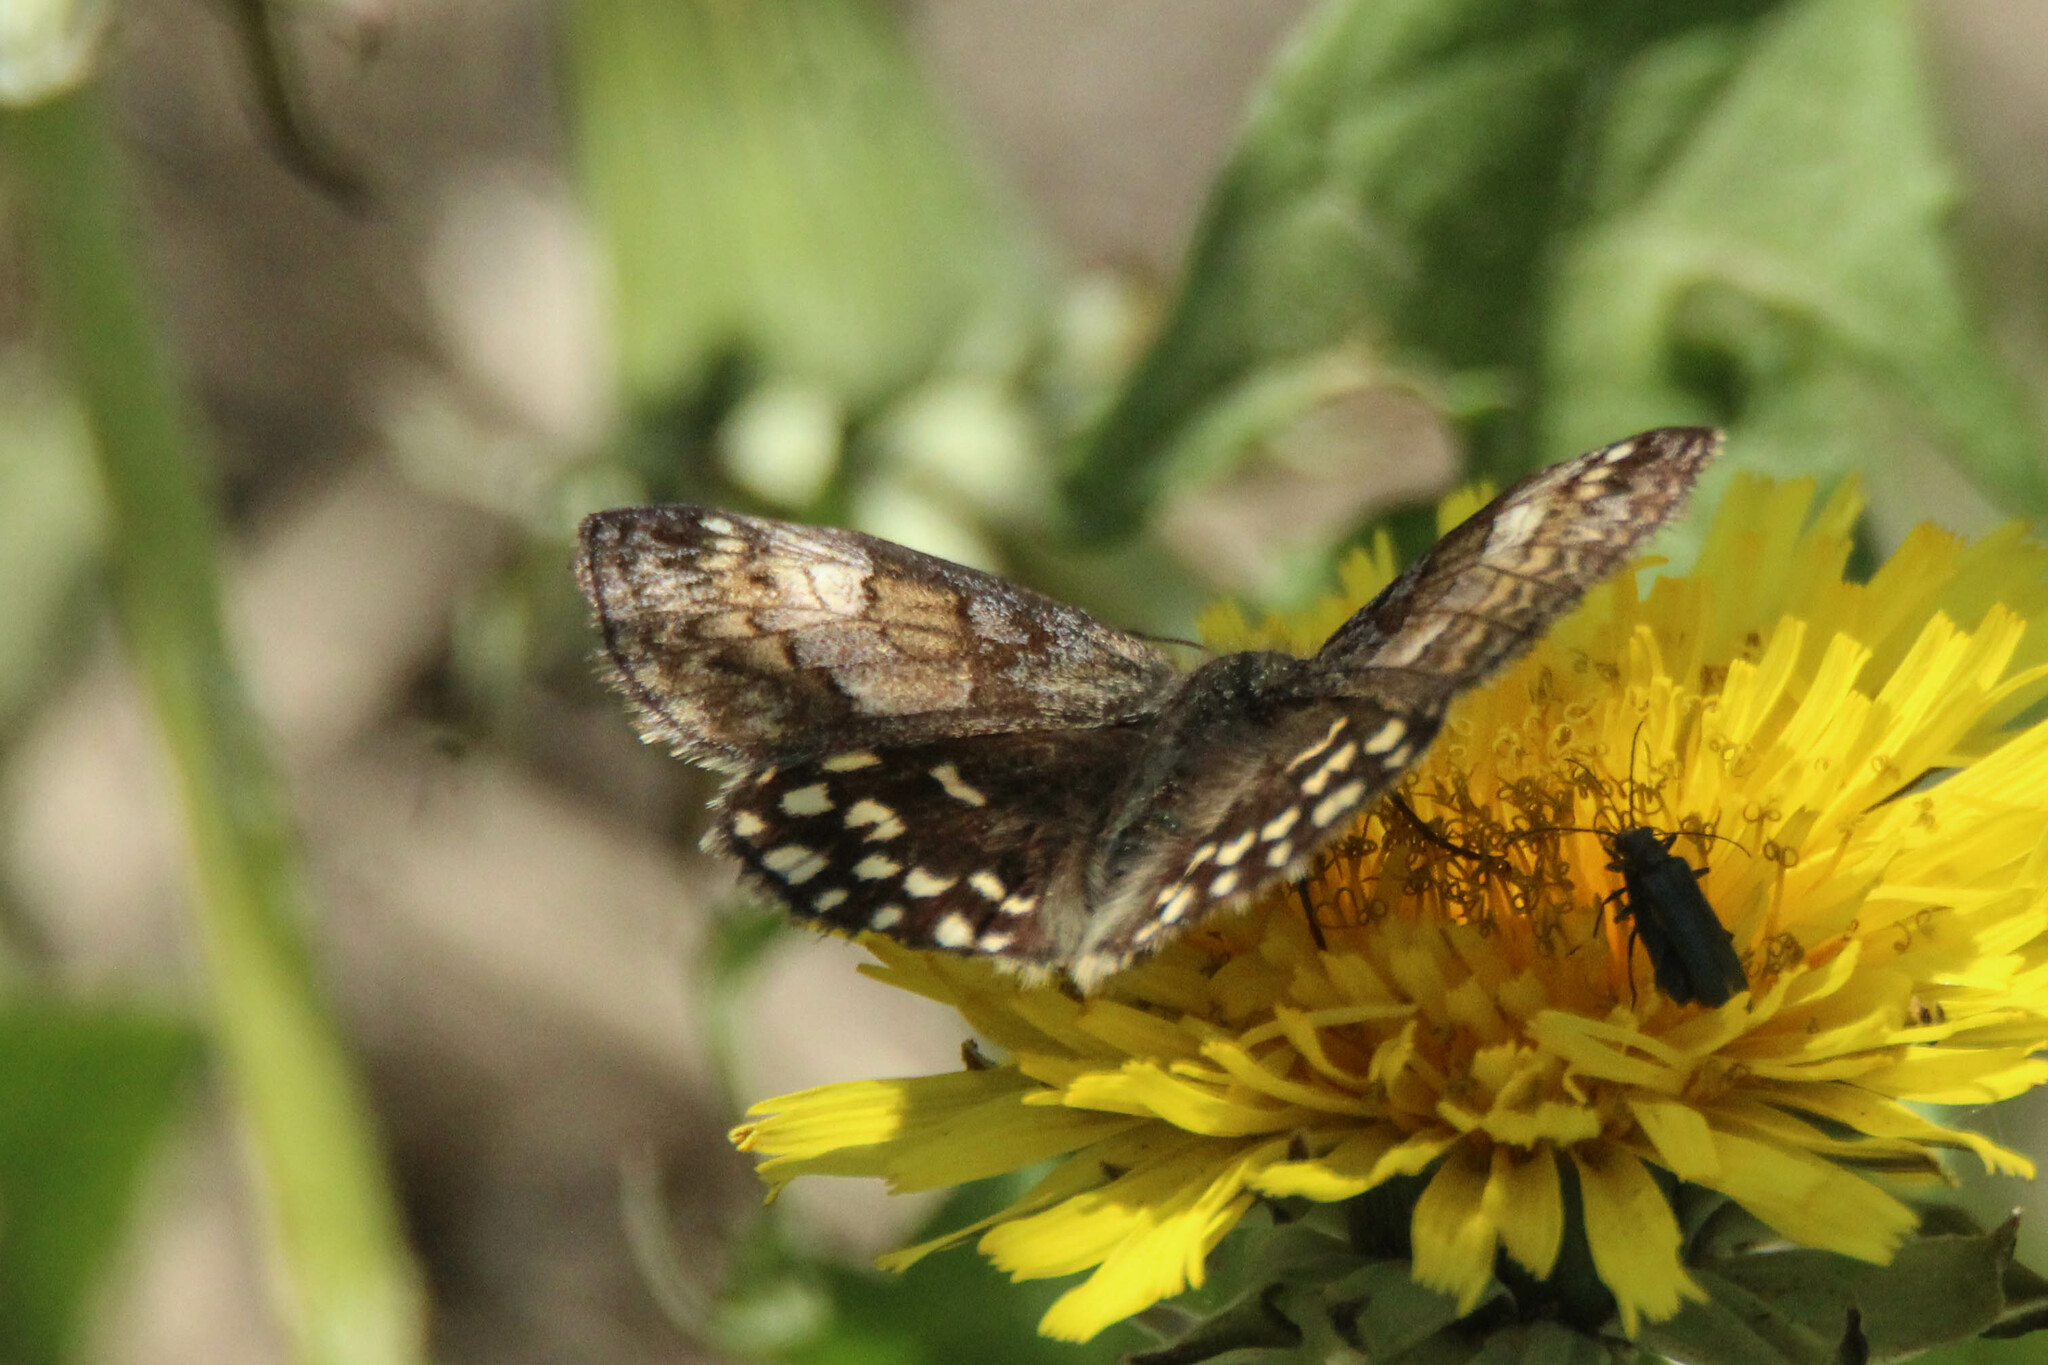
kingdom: Animalia
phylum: Arthropoda
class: Insecta
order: Lepidoptera
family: Hesperiidae
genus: Erynnis
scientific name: Erynnis montanus
